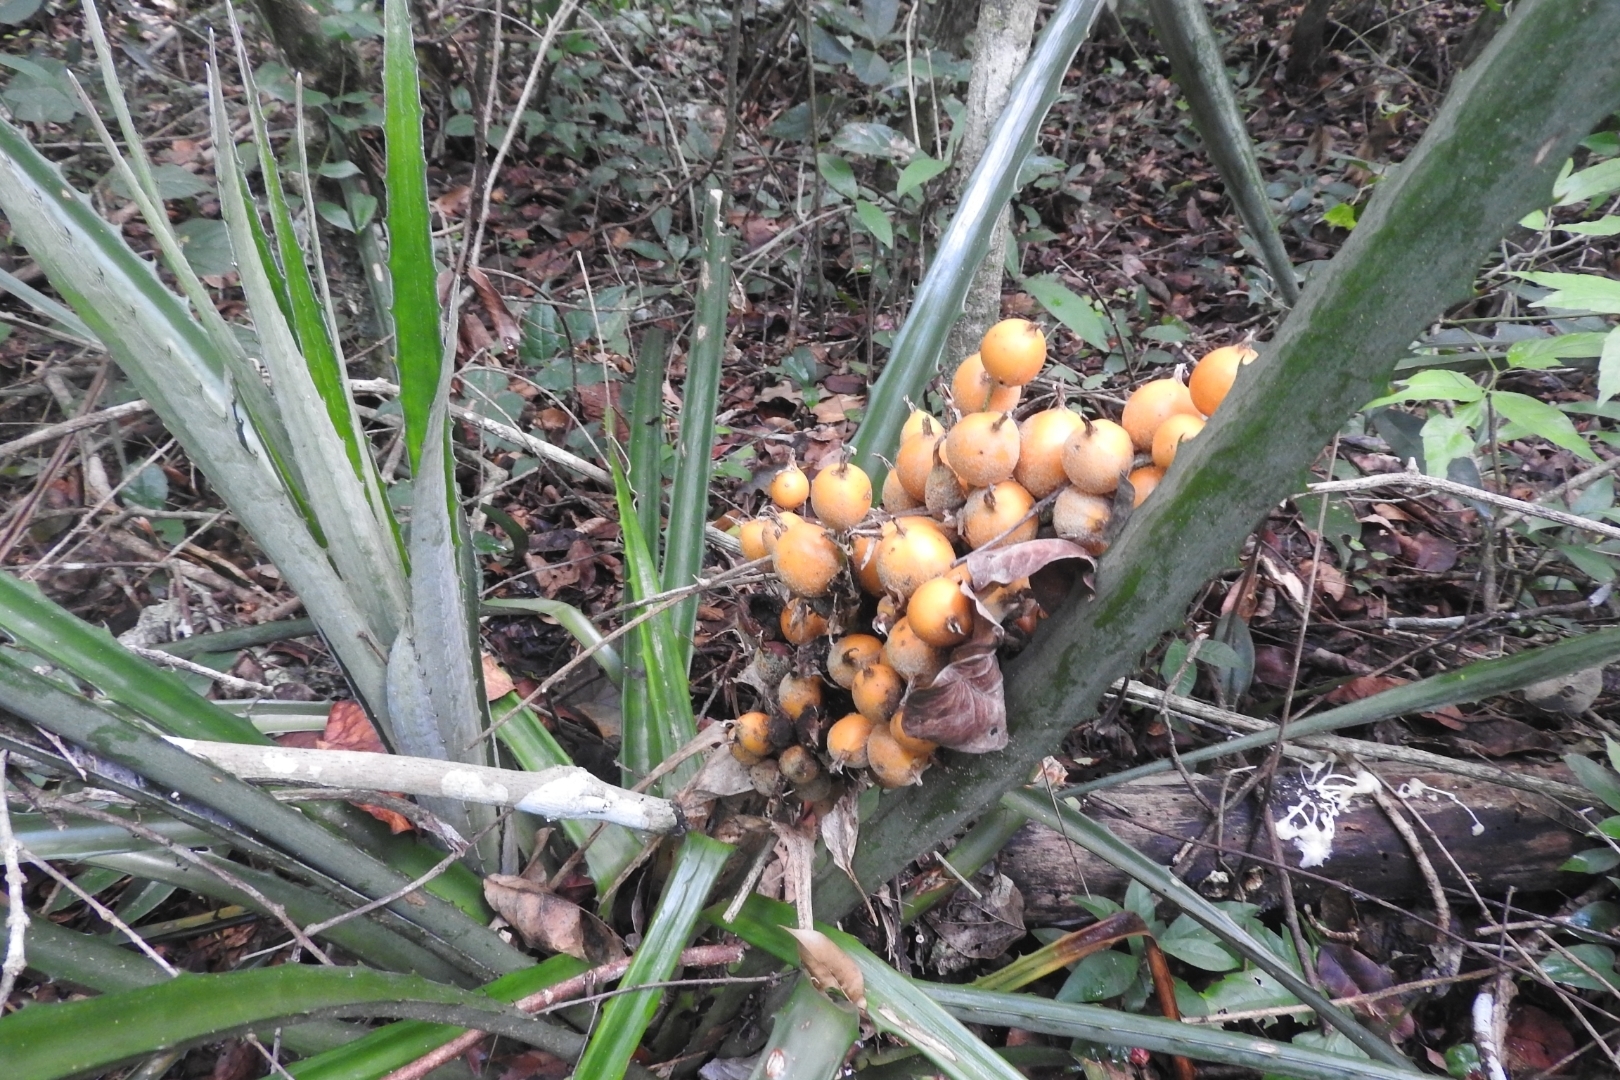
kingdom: Plantae
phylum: Tracheophyta
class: Liliopsida
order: Poales
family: Bromeliaceae
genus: Bromelia
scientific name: Bromelia pinguin
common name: Pinguin
